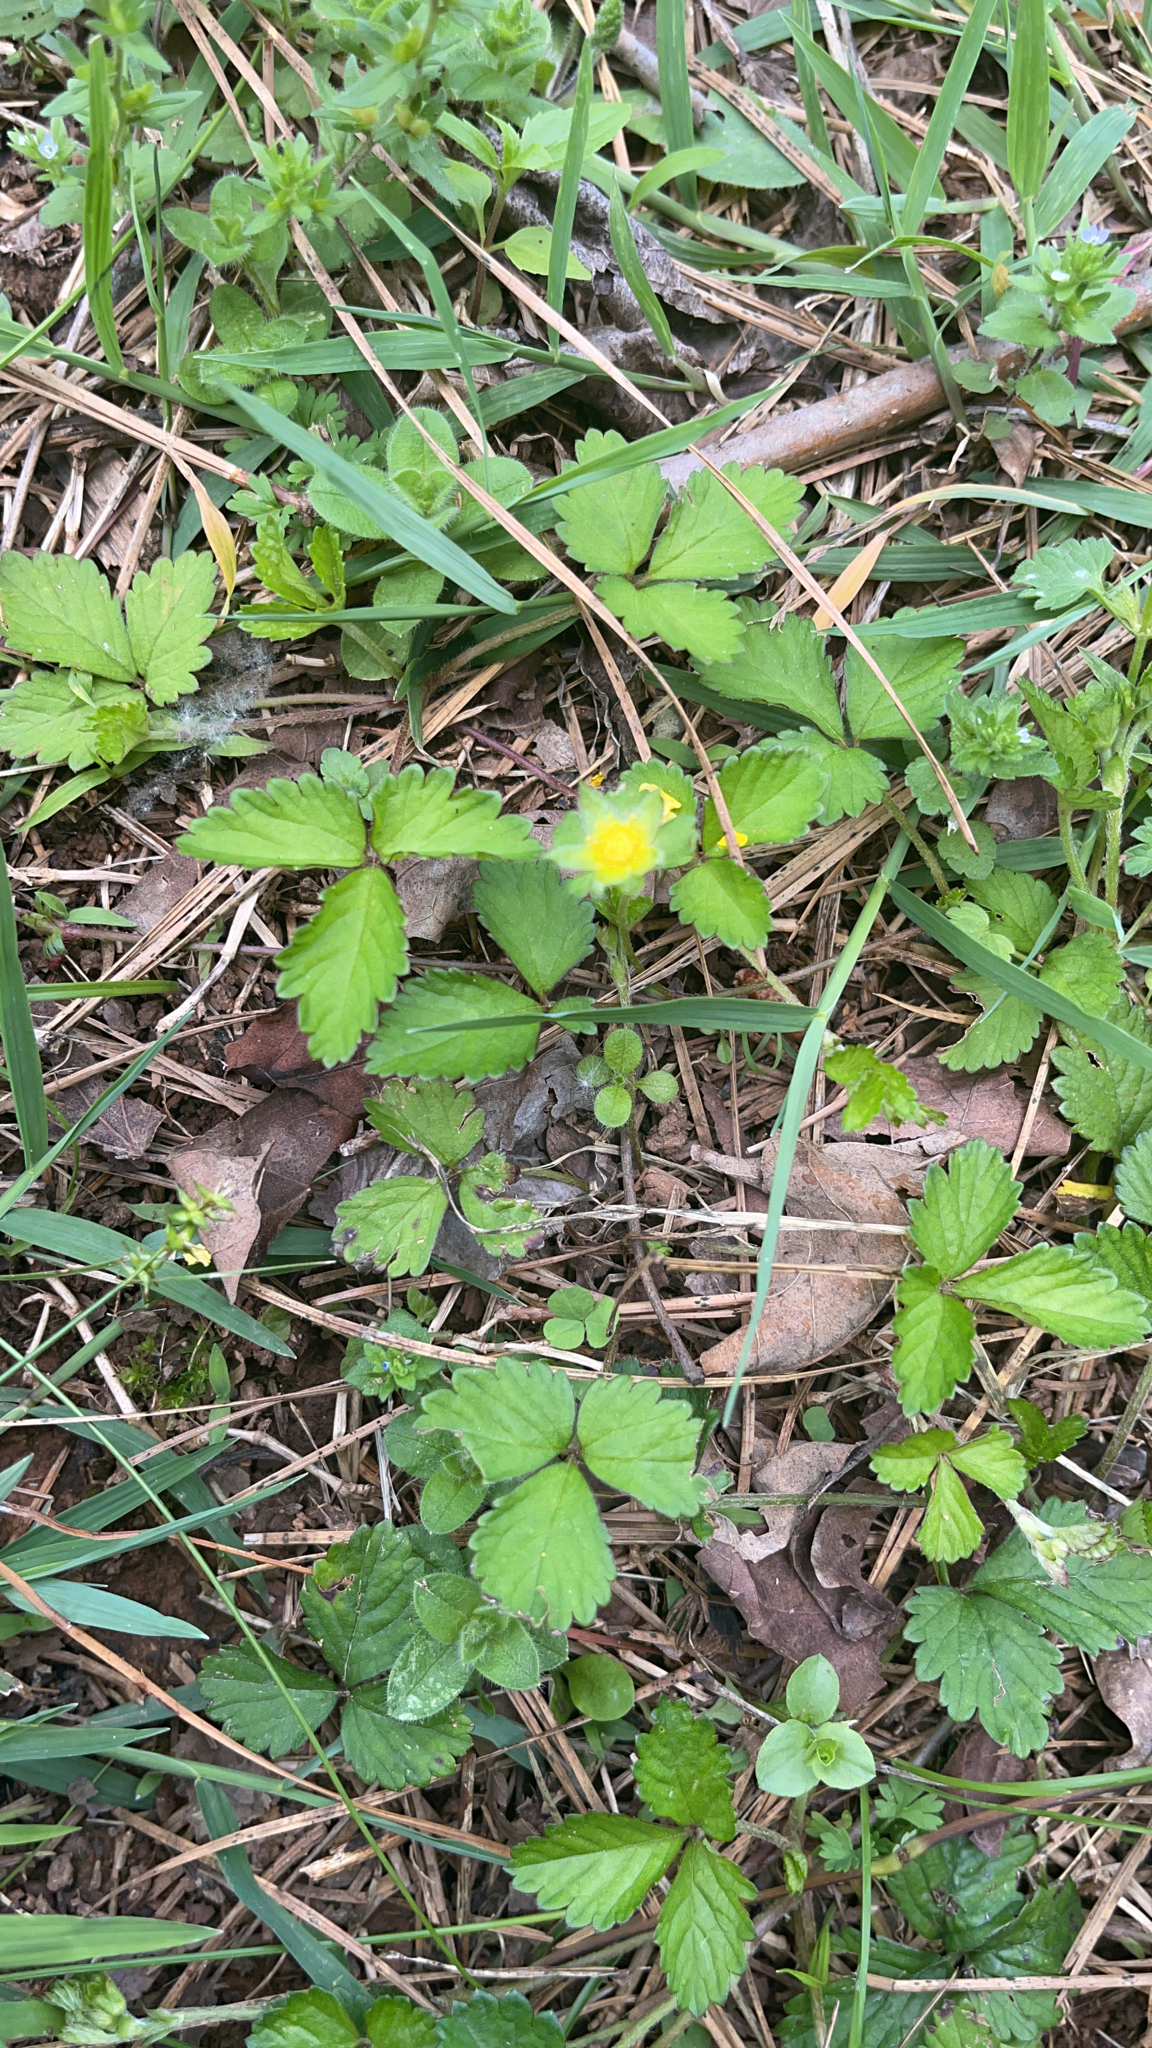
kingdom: Plantae
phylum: Tracheophyta
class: Magnoliopsida
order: Rosales
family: Rosaceae
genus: Potentilla
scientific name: Potentilla indica
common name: Yellow-flowered strawberry
